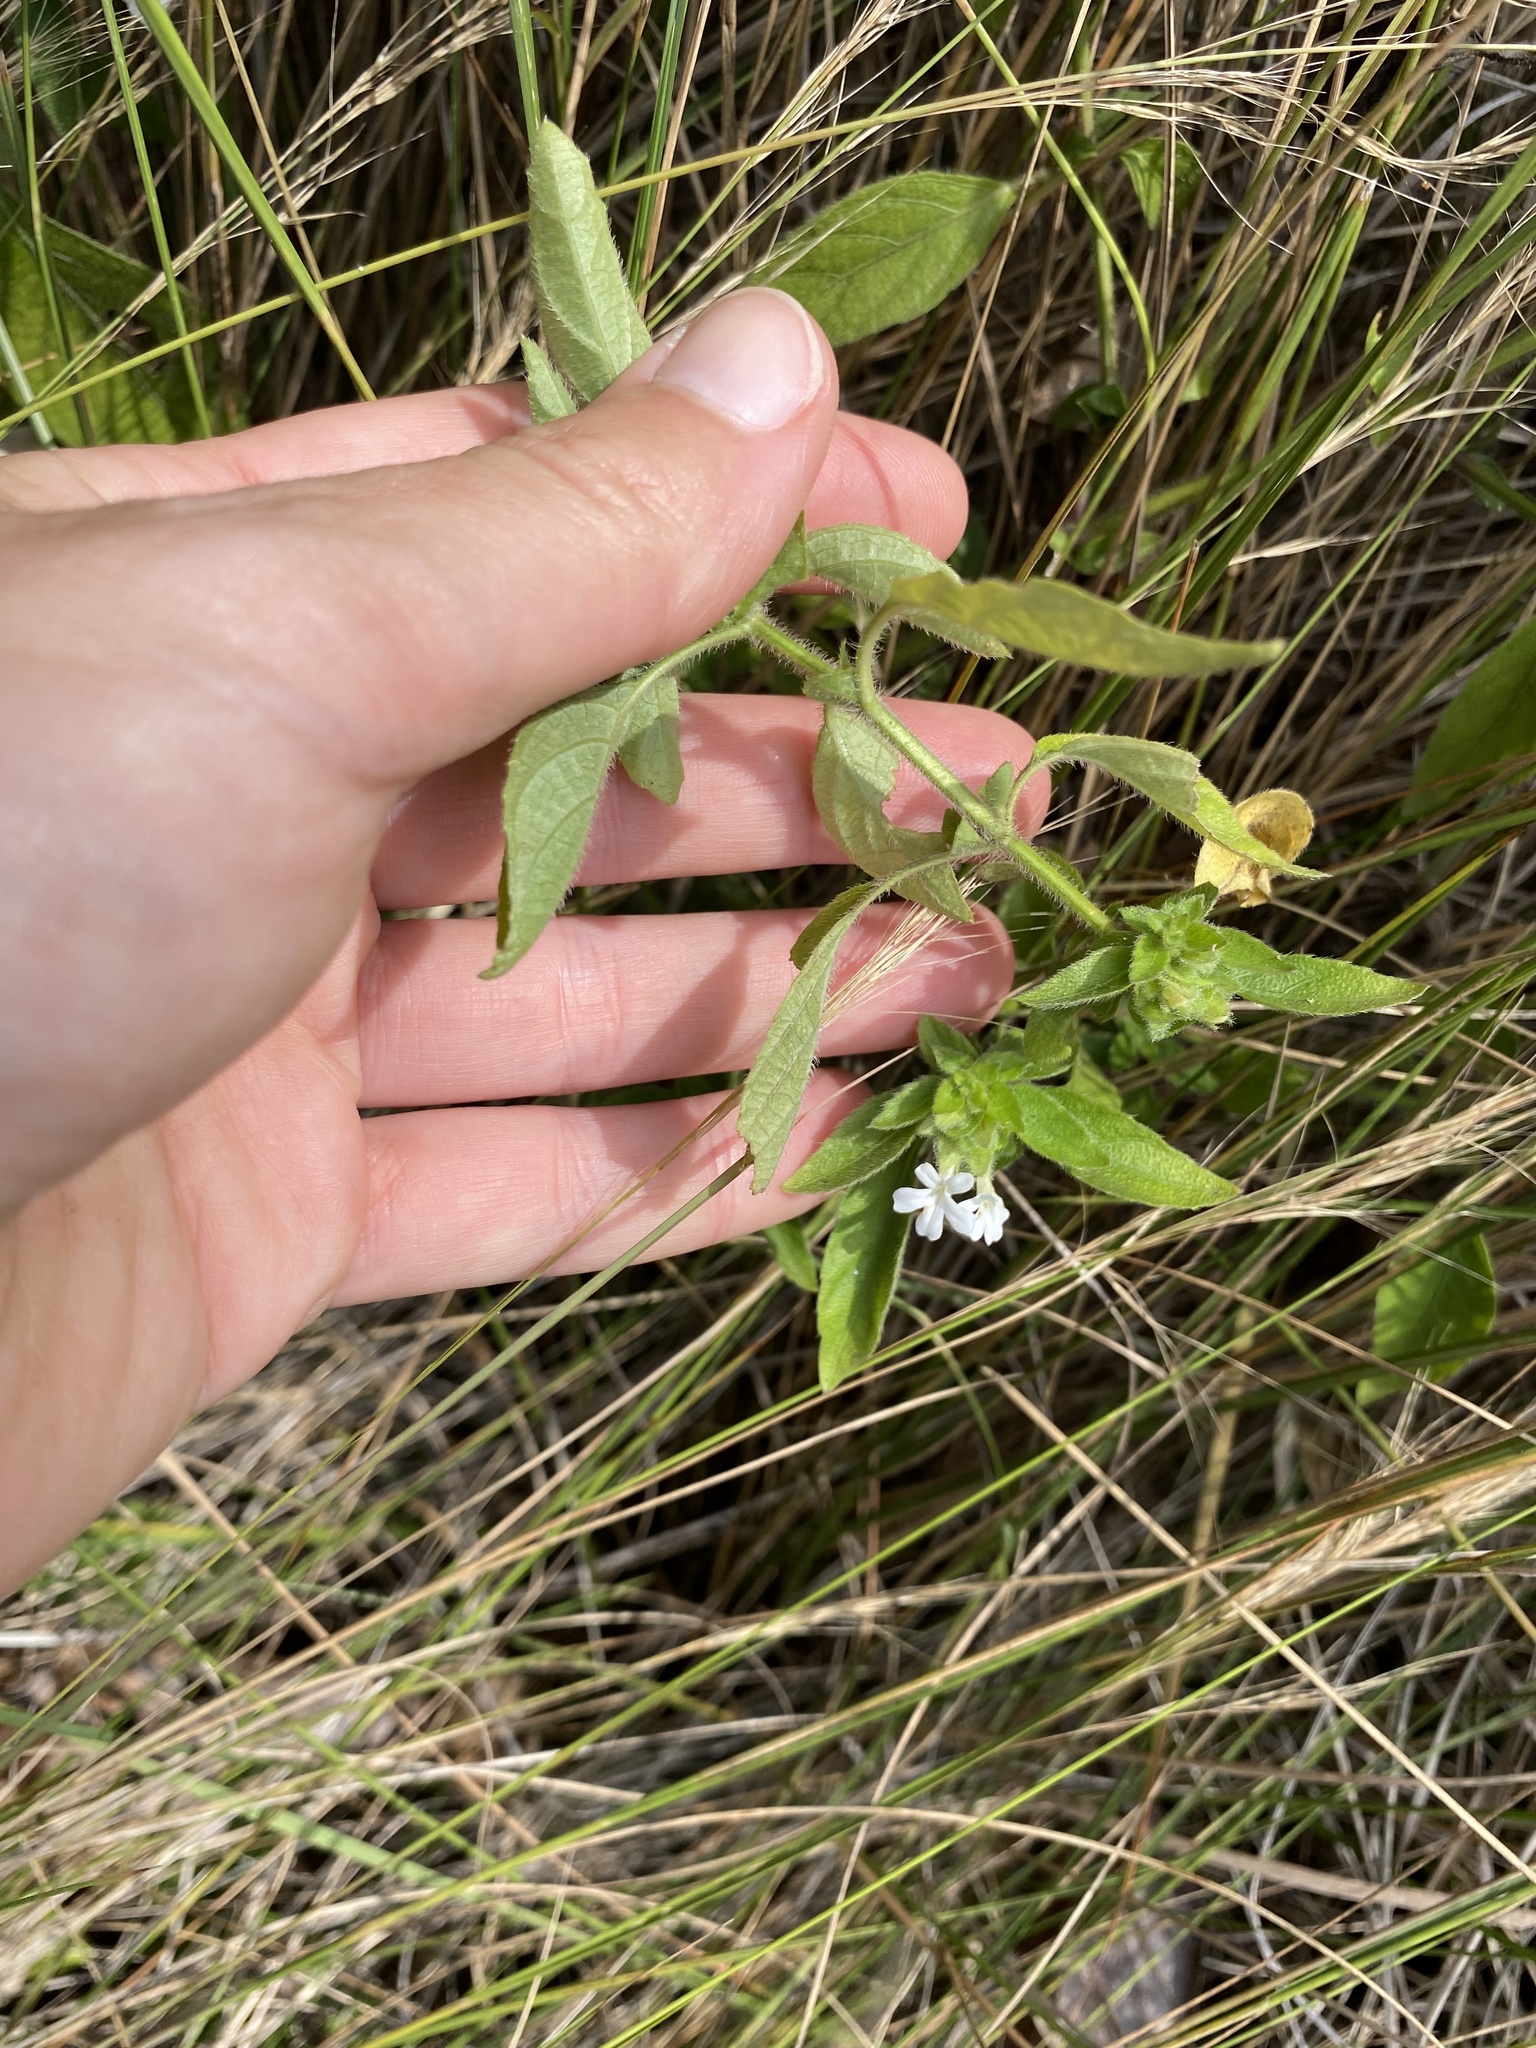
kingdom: Plantae
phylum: Tracheophyta
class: Magnoliopsida
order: Lamiales
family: Acanthaceae
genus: Phaulopsis
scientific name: Phaulopsis imbricata
